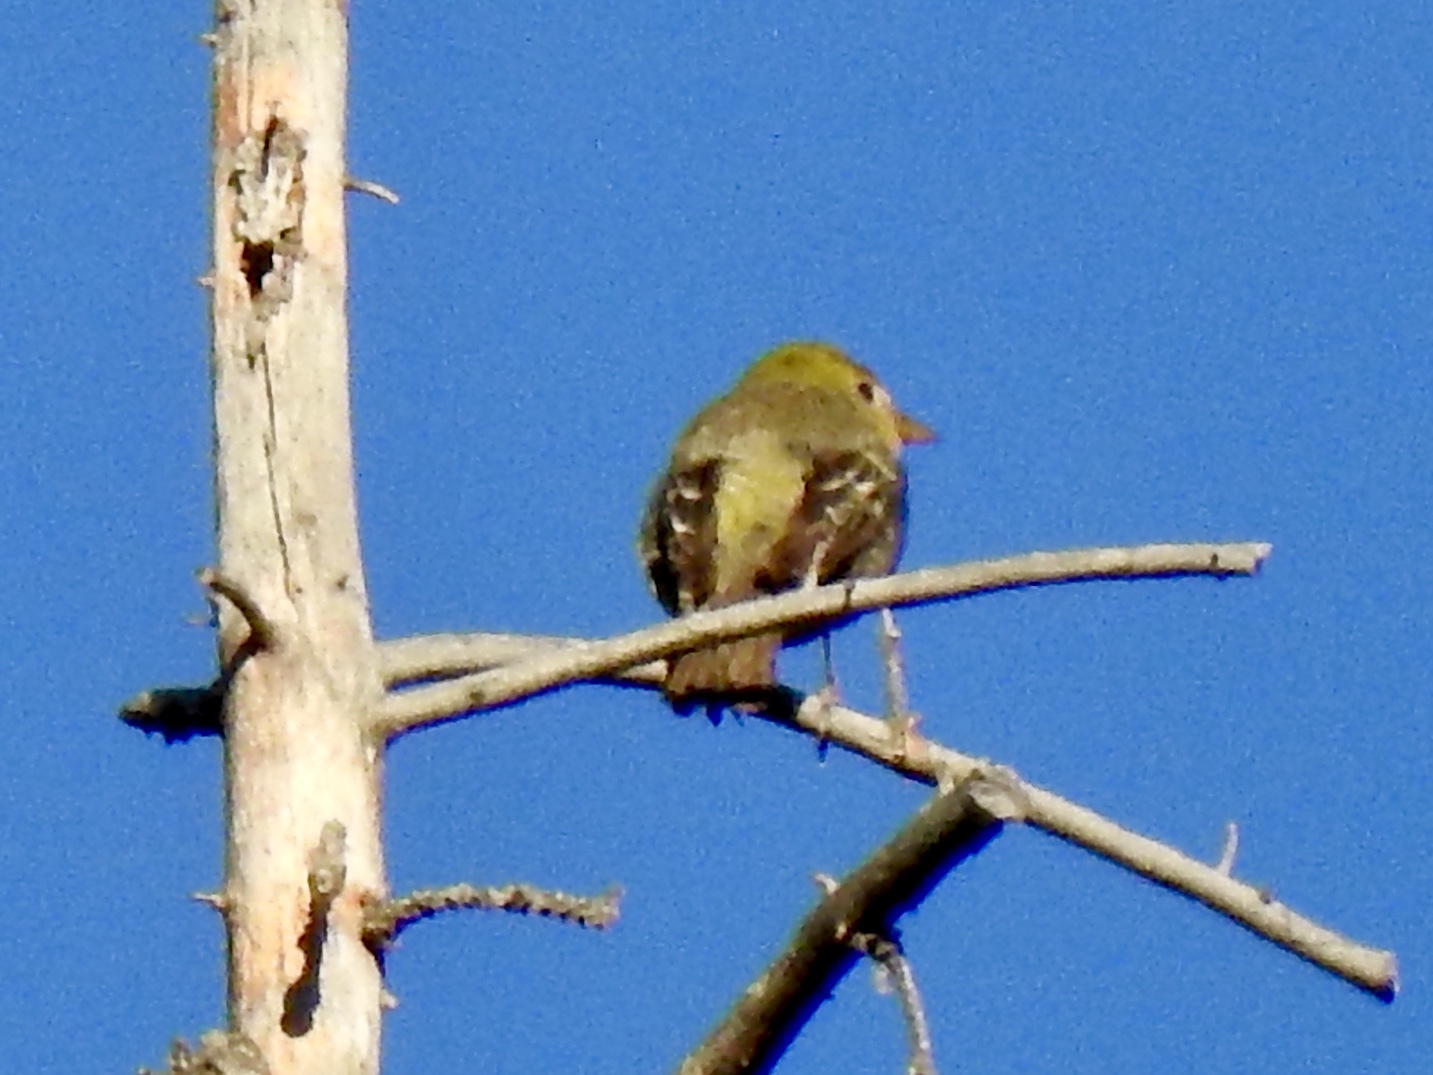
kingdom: Animalia
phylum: Chordata
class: Aves
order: Passeriformes
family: Cardinalidae
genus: Piranga
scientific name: Piranga ludoviciana
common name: Western tanager
